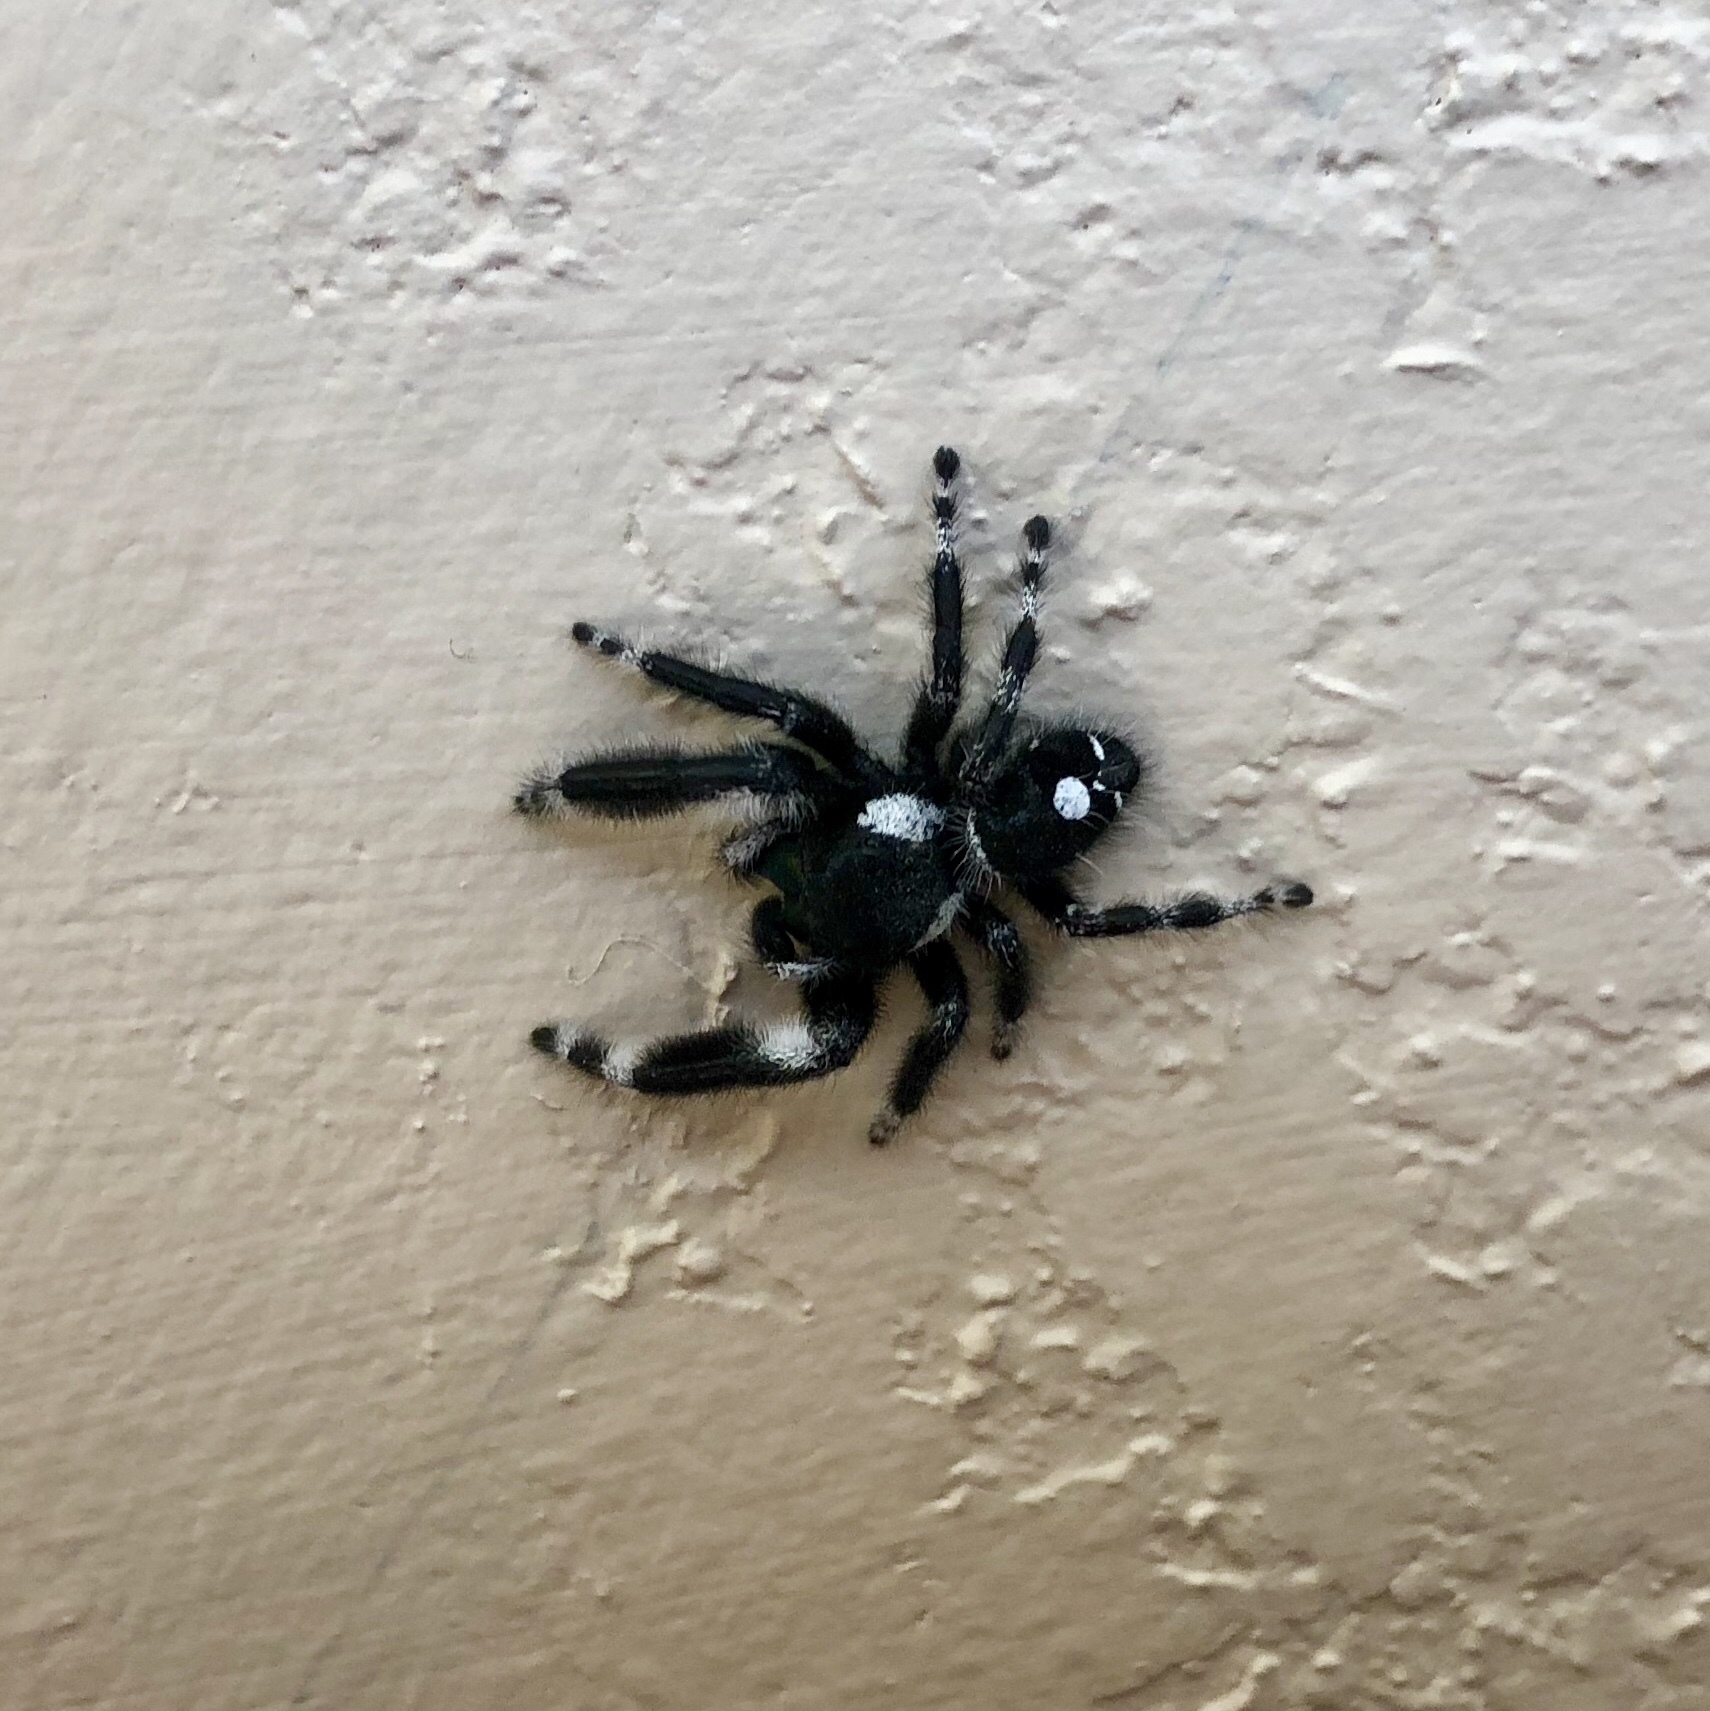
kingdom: Animalia
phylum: Arthropoda
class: Arachnida
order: Araneae
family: Salticidae
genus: Phidippus
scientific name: Phidippus audax
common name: Bold jumper
